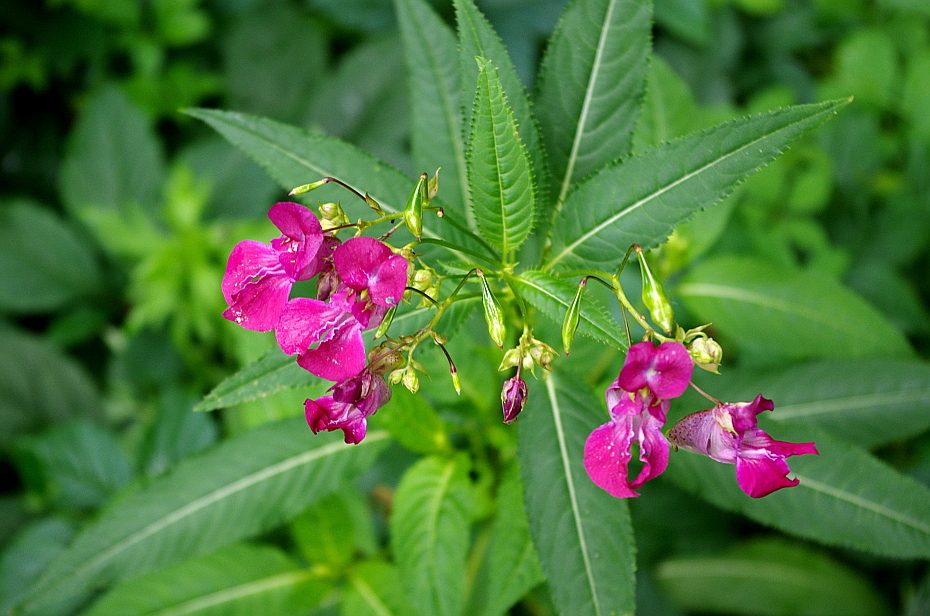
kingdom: Plantae
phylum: Tracheophyta
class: Magnoliopsida
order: Ericales
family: Balsaminaceae
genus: Impatiens
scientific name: Impatiens glandulifera
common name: Himalayan balsam
